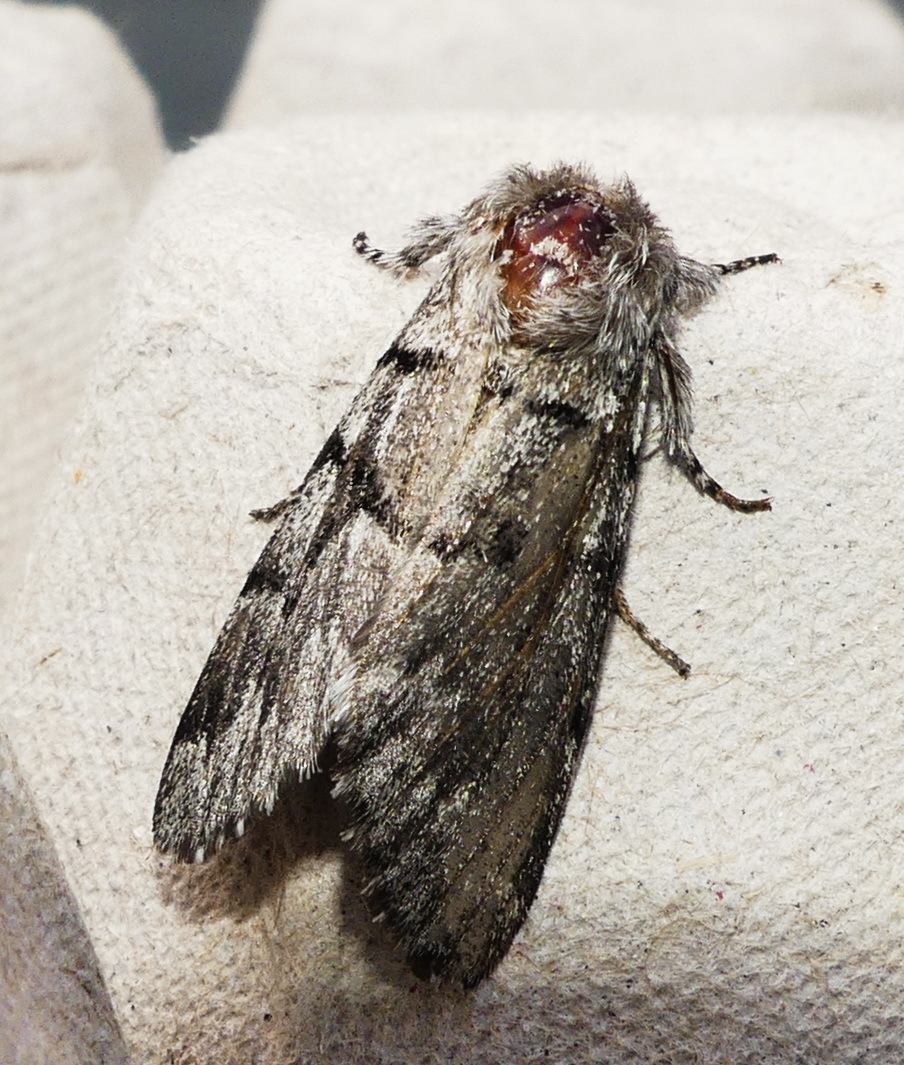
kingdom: Animalia
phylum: Arthropoda
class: Insecta
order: Lepidoptera
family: Noctuidae
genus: Panthea
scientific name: Panthea furcilla
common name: Eastern panthea moth
